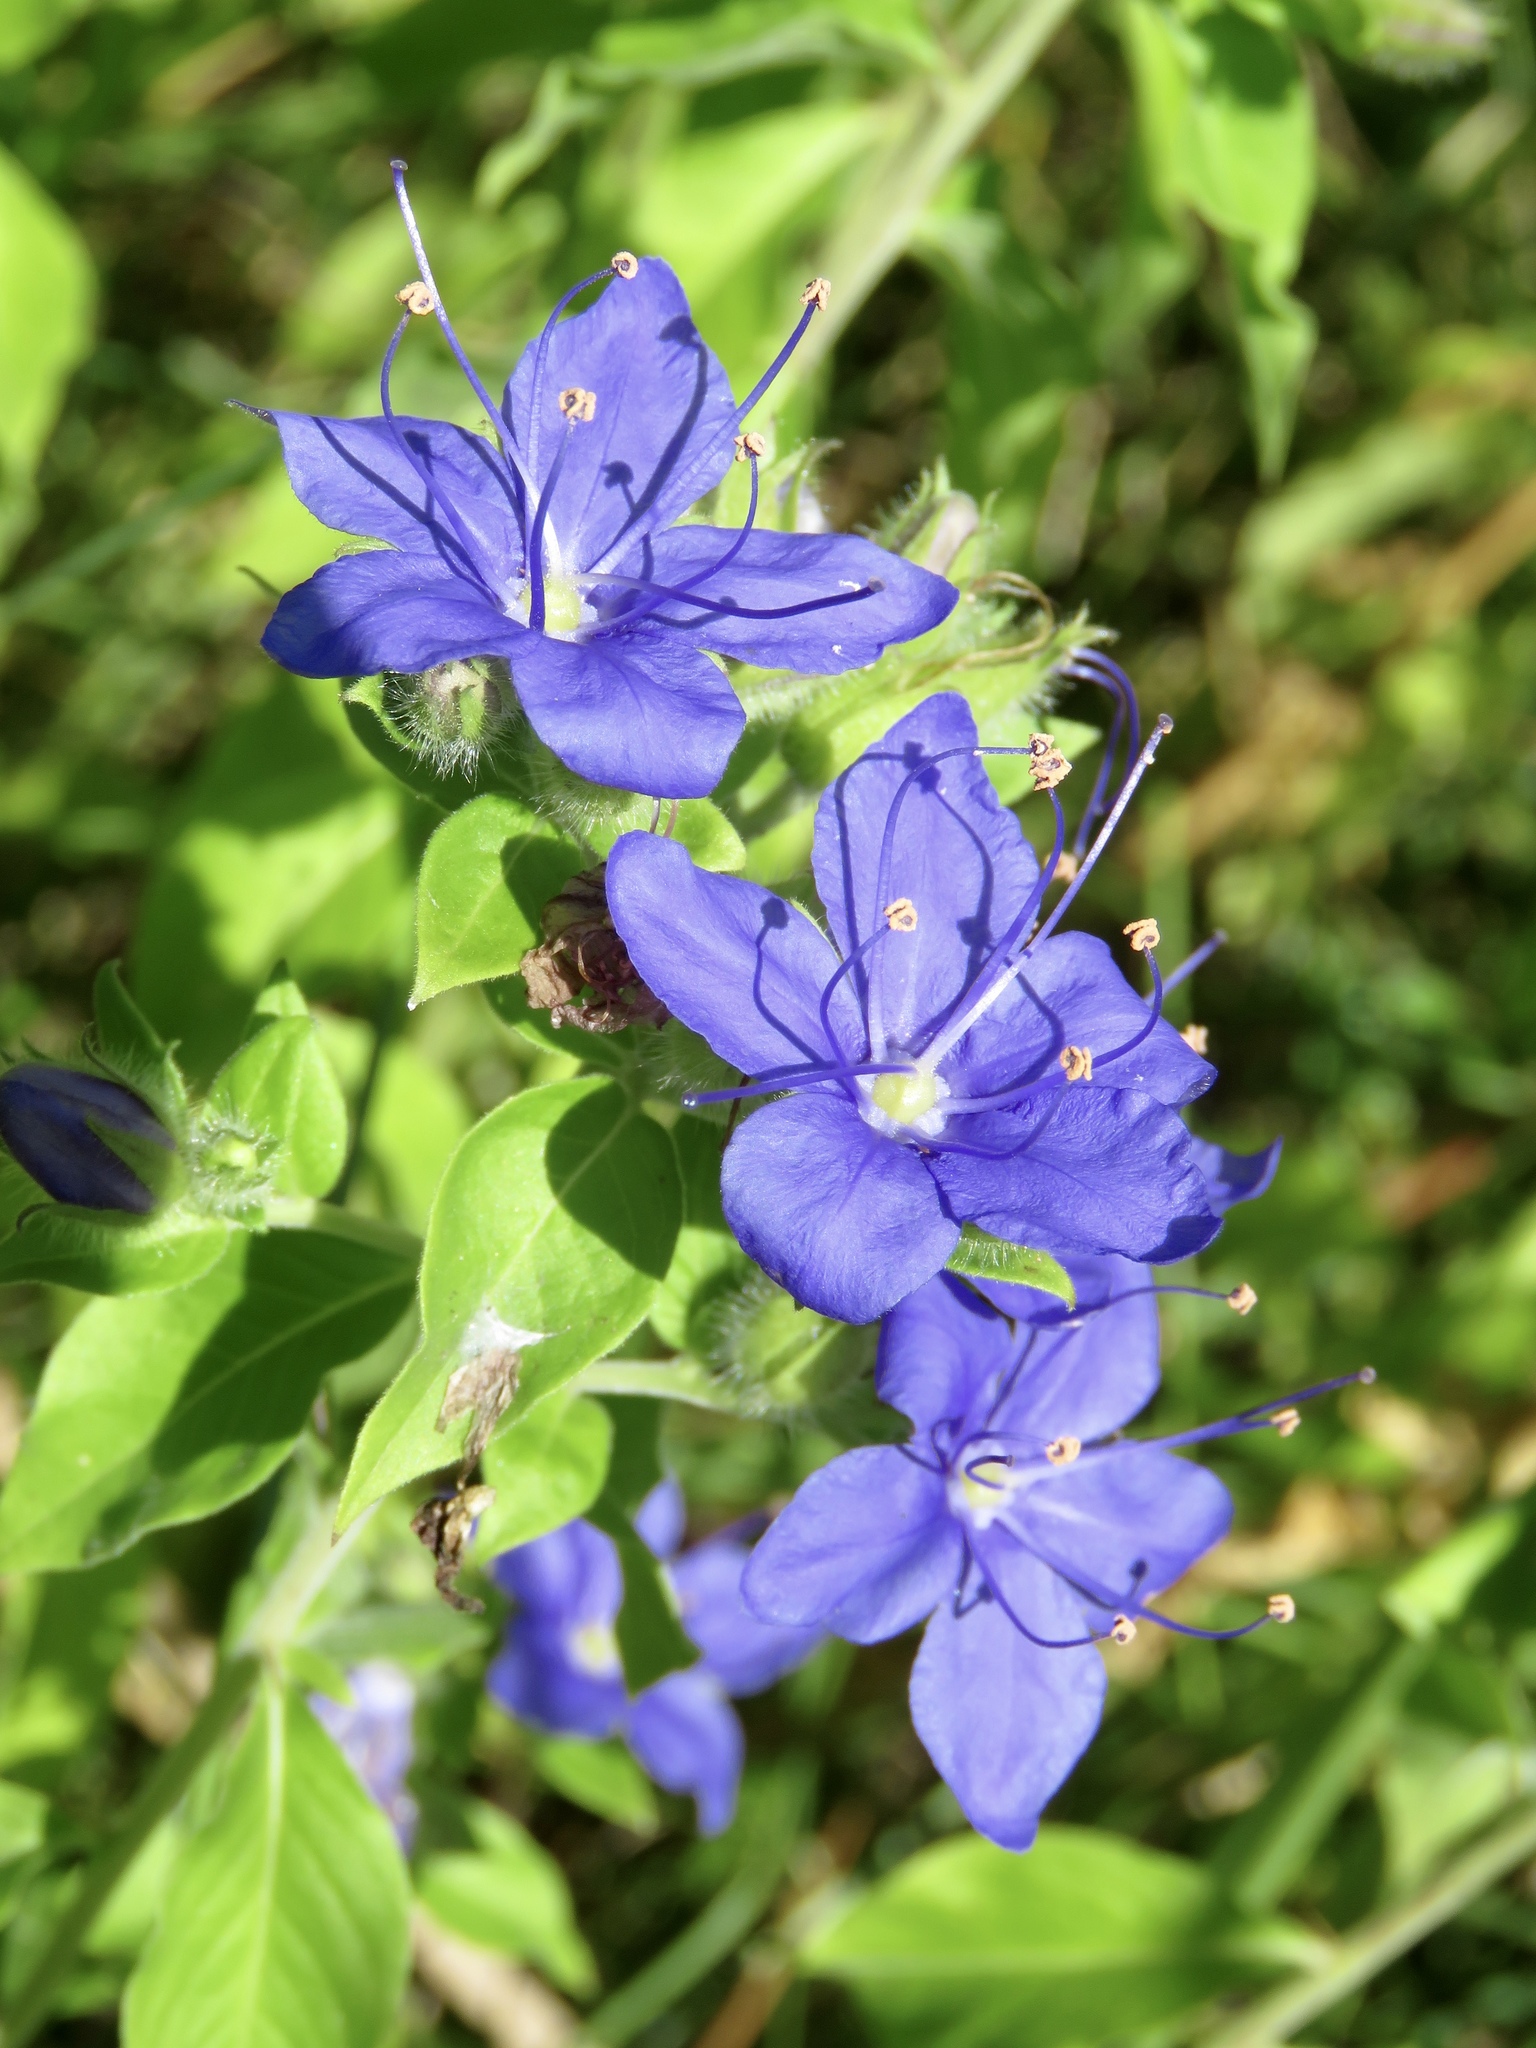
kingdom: Plantae
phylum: Tracheophyta
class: Magnoliopsida
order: Solanales
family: Hydroleaceae
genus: Hydrolea
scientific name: Hydrolea ovata
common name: Ovate false fiddleleaf
